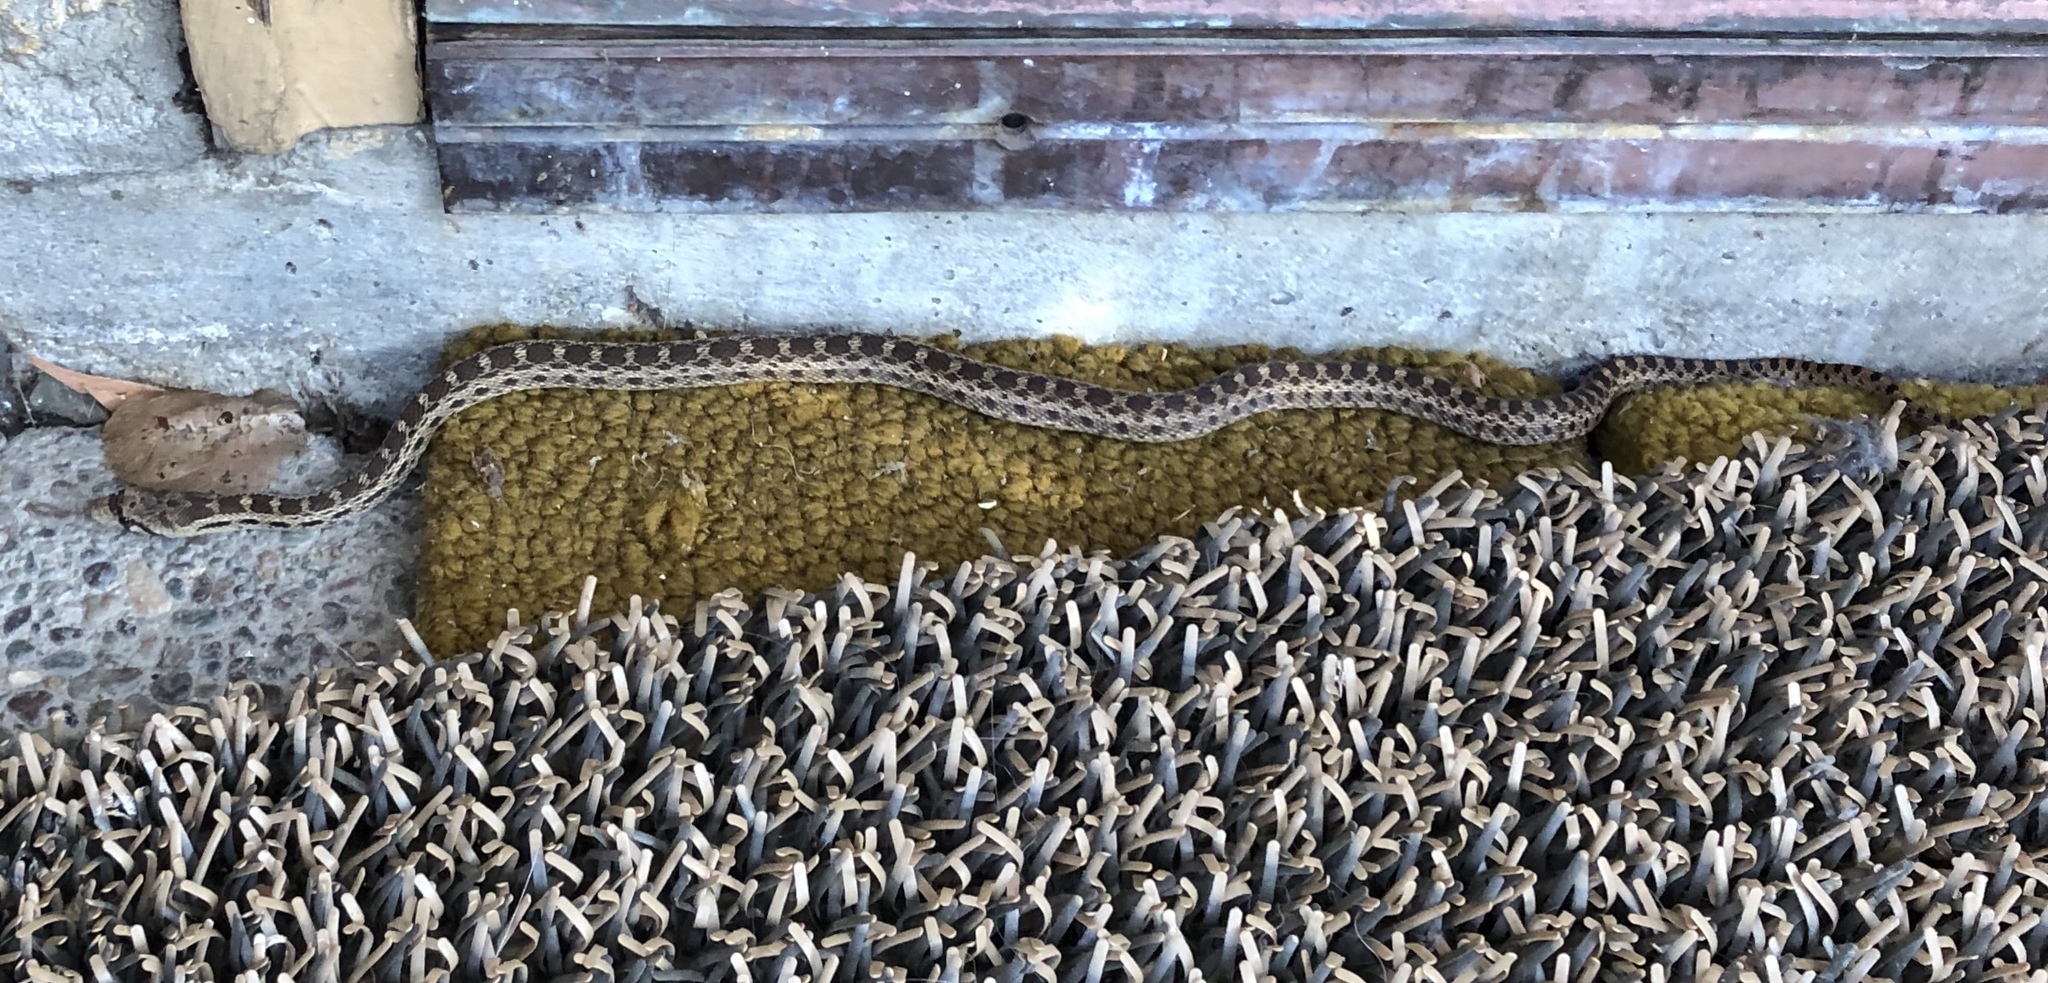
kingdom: Animalia
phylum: Chordata
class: Squamata
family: Colubridae
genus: Pituophis
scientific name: Pituophis catenifer
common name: Gopher snake
